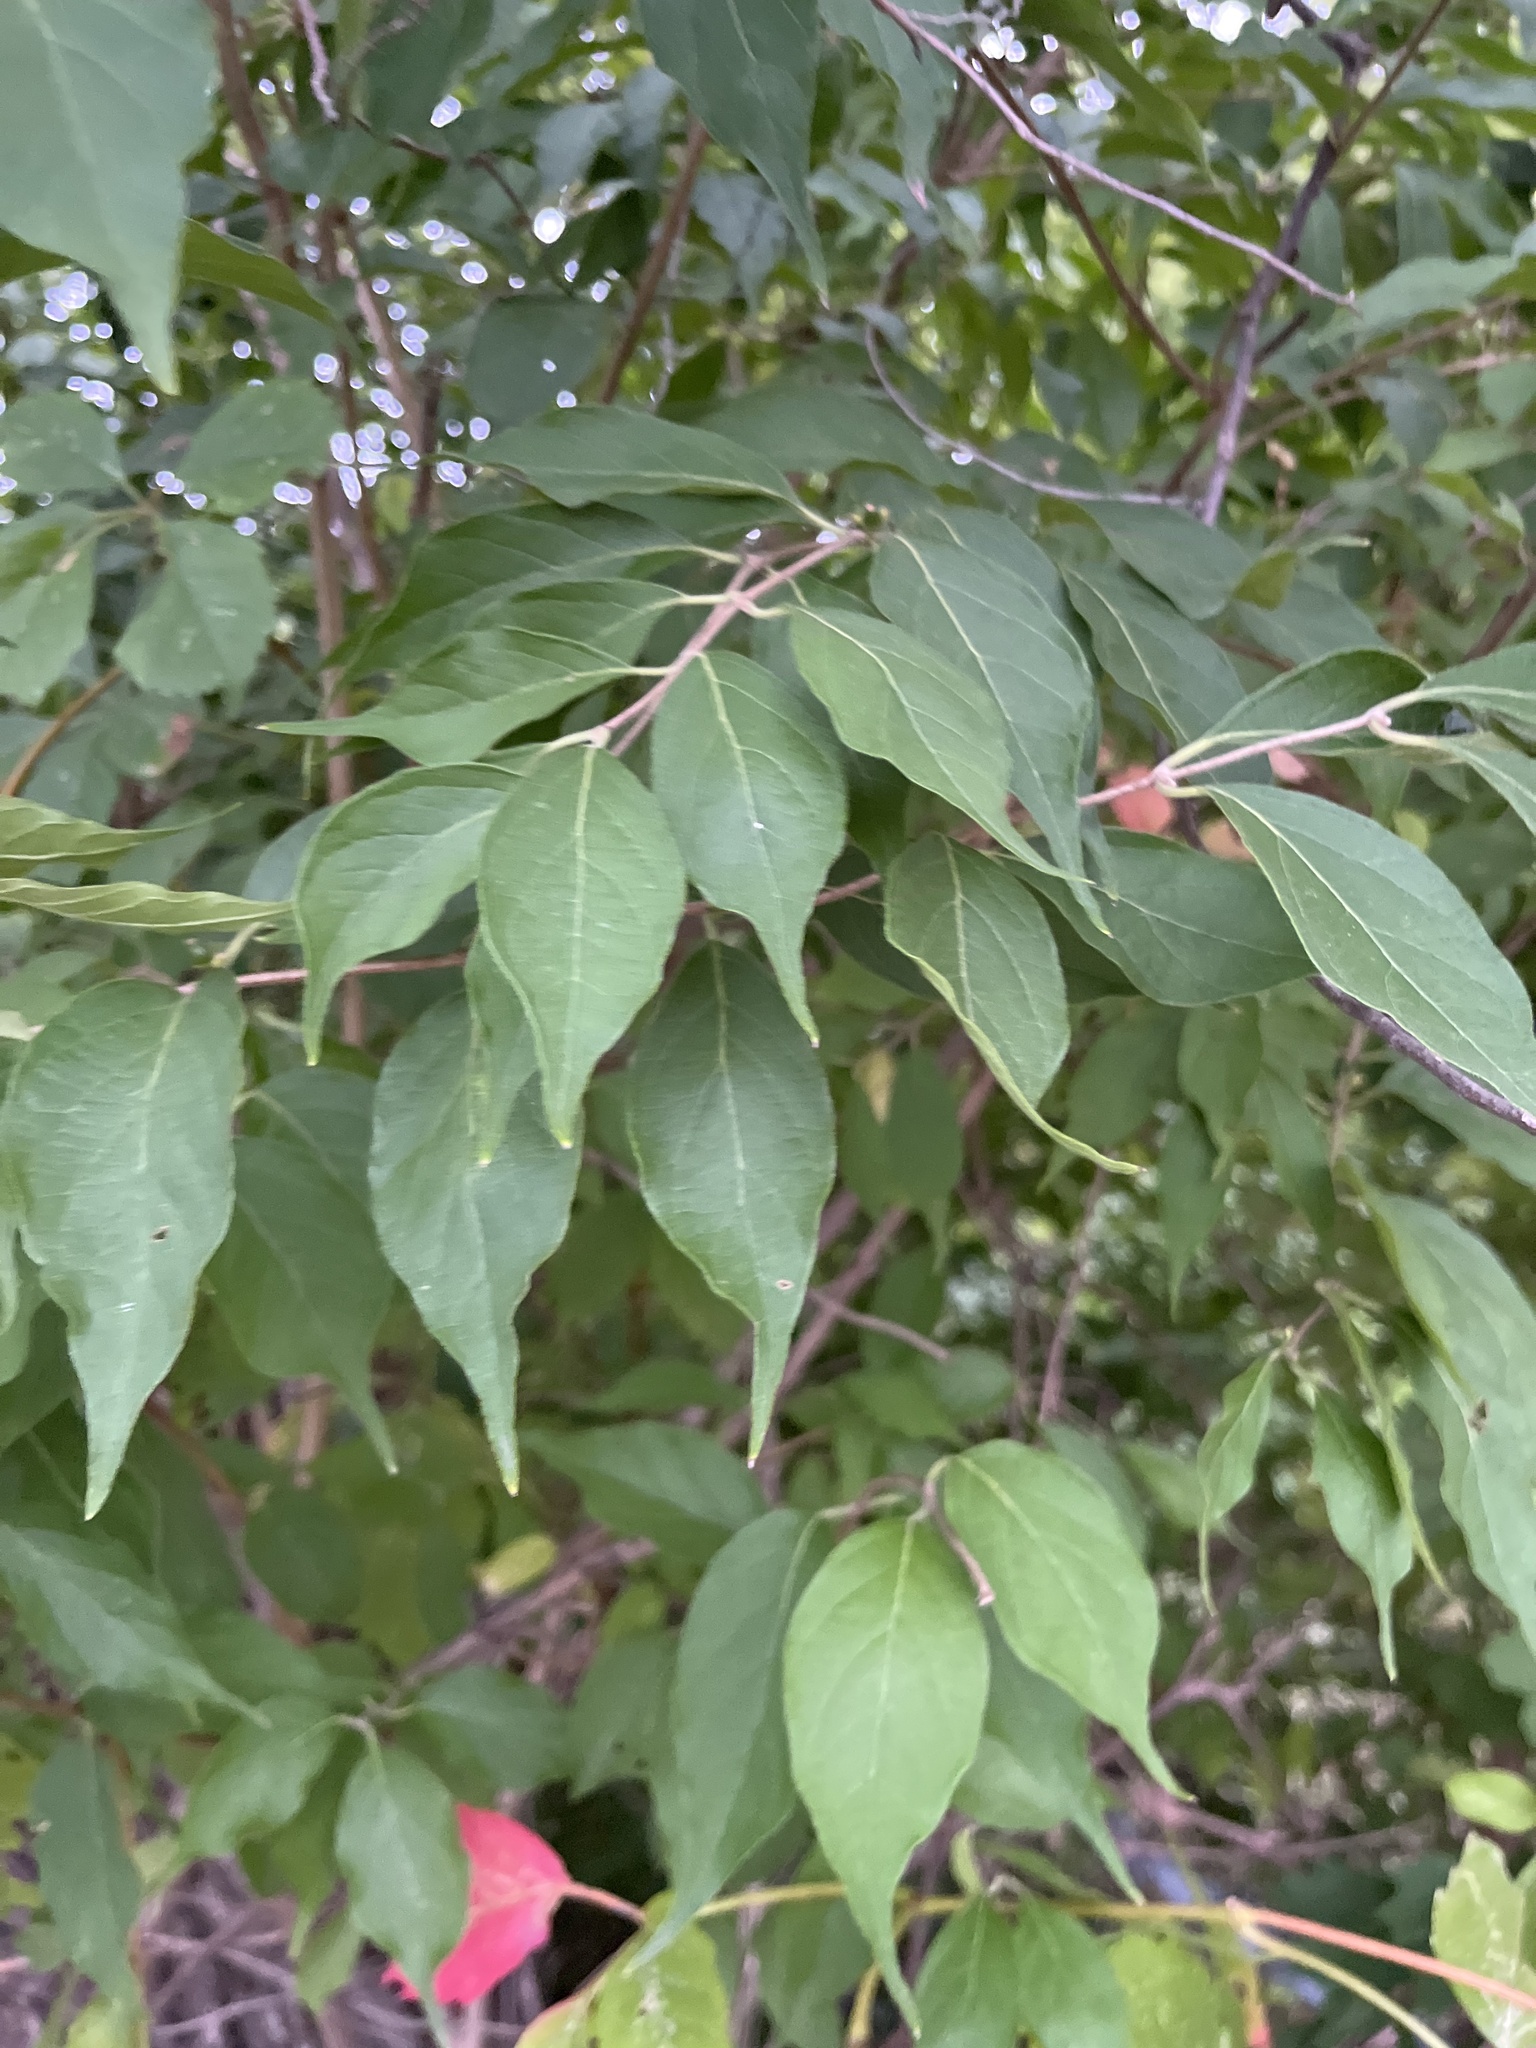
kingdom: Plantae
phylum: Tracheophyta
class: Magnoliopsida
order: Dipsacales
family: Caprifoliaceae
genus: Lonicera
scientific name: Lonicera maackii
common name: Amur honeysuckle
